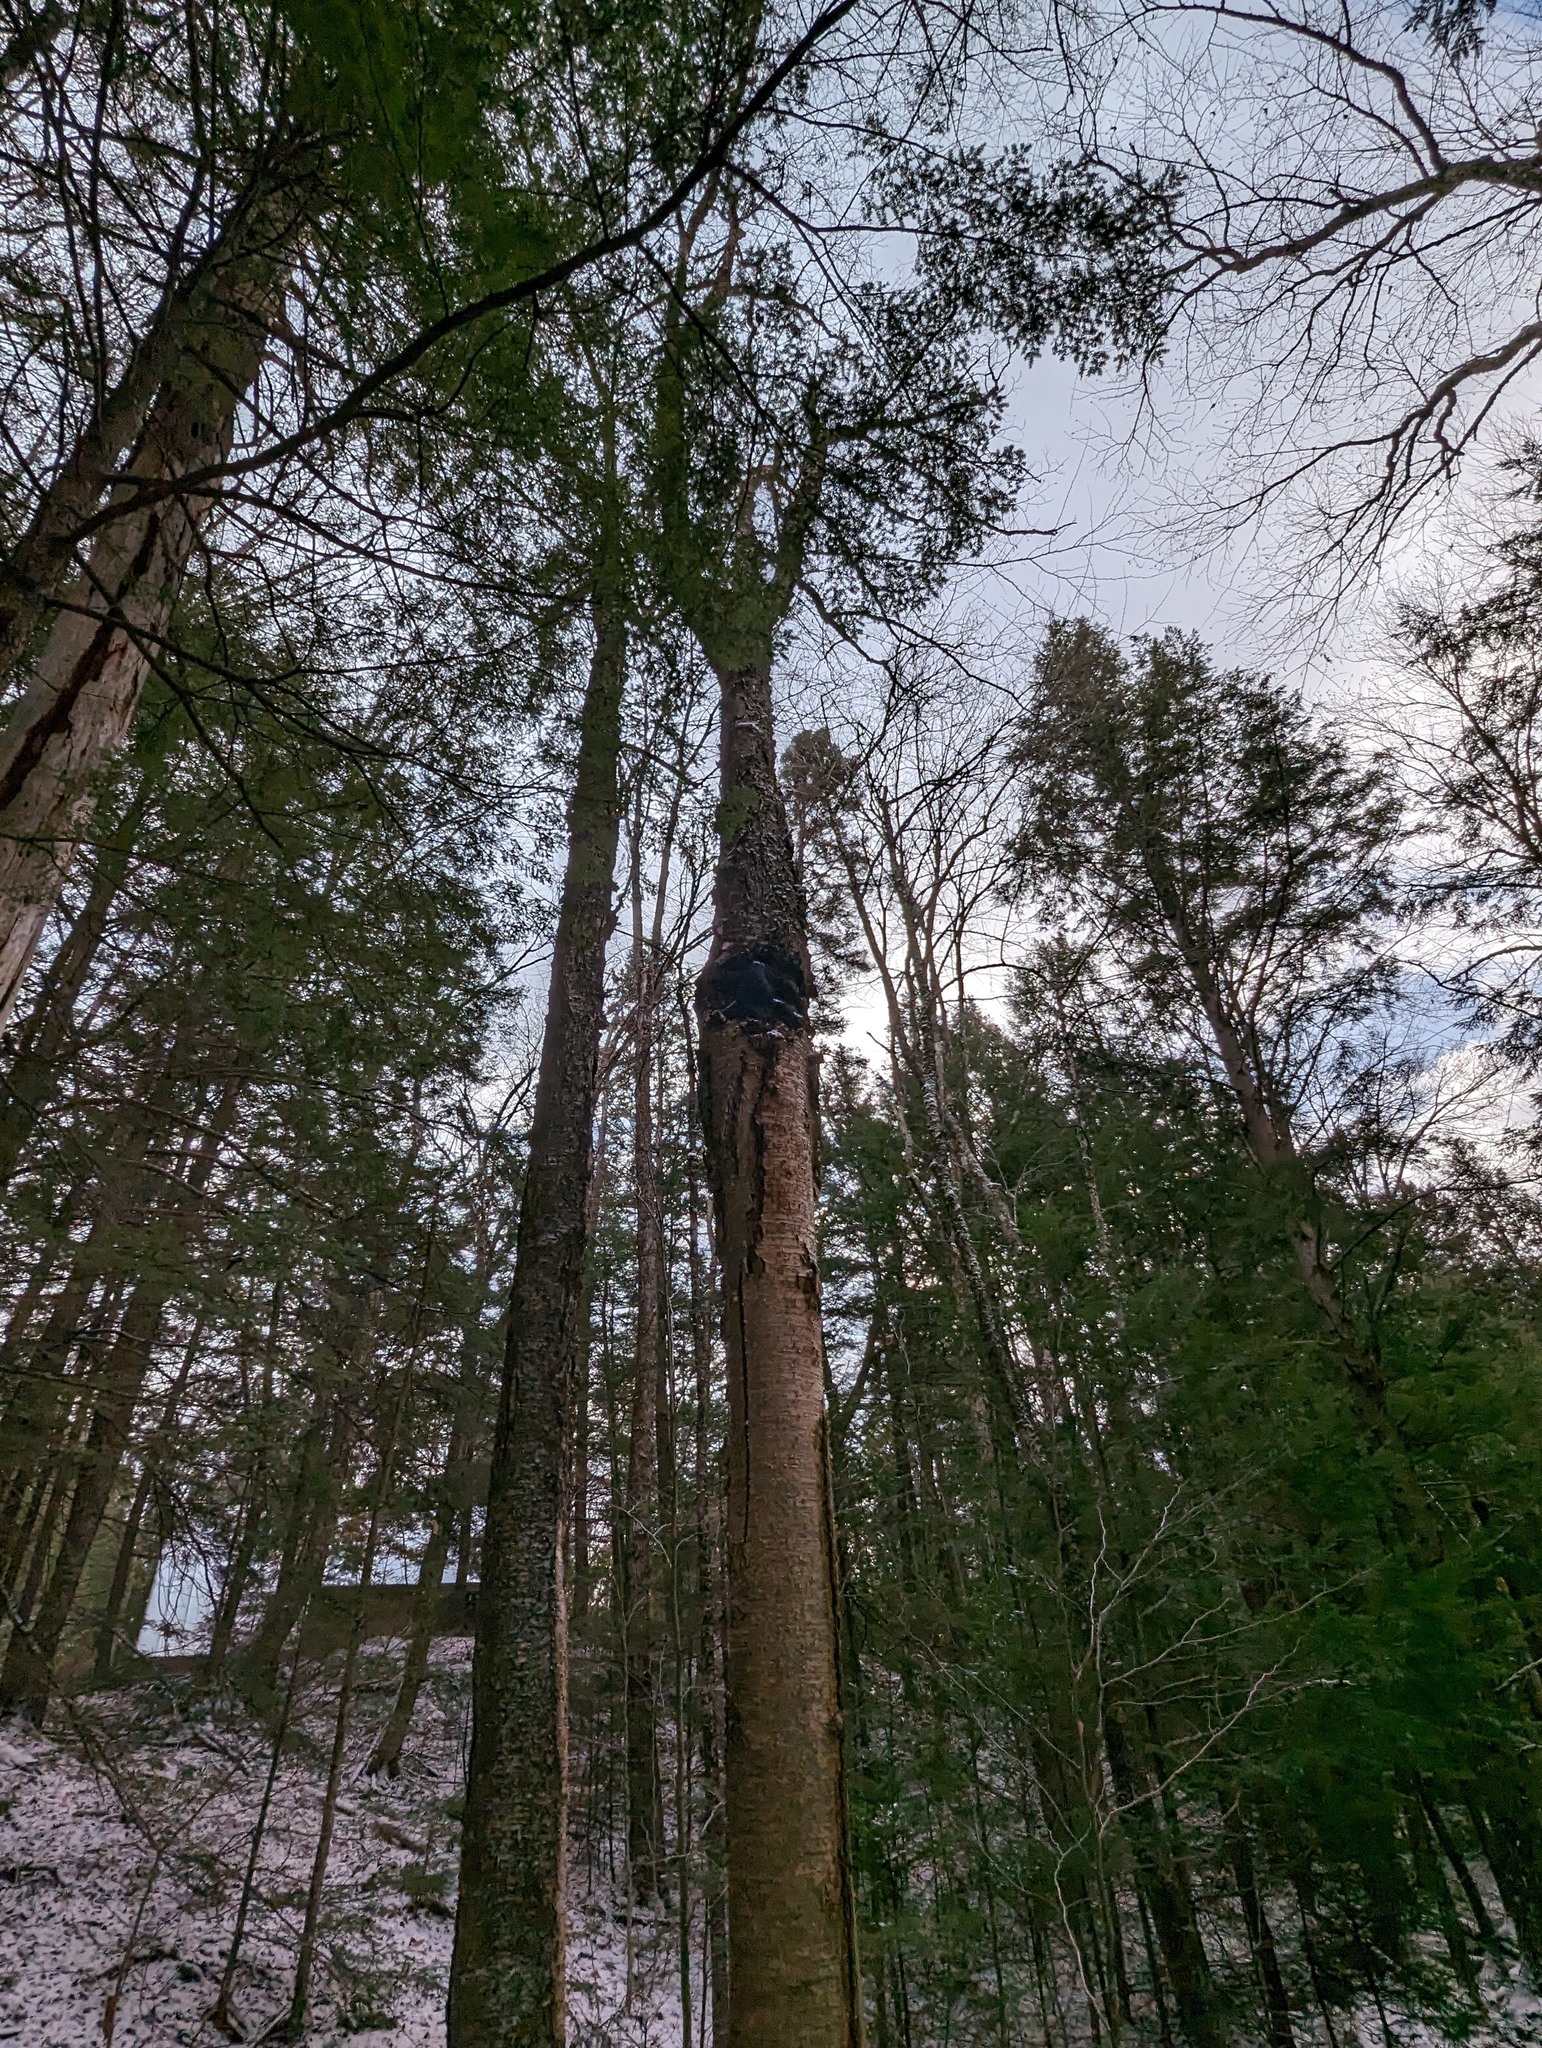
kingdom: Plantae
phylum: Tracheophyta
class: Magnoliopsida
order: Fagales
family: Betulaceae
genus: Betula
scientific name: Betula alleghaniensis
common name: Yellow birch
